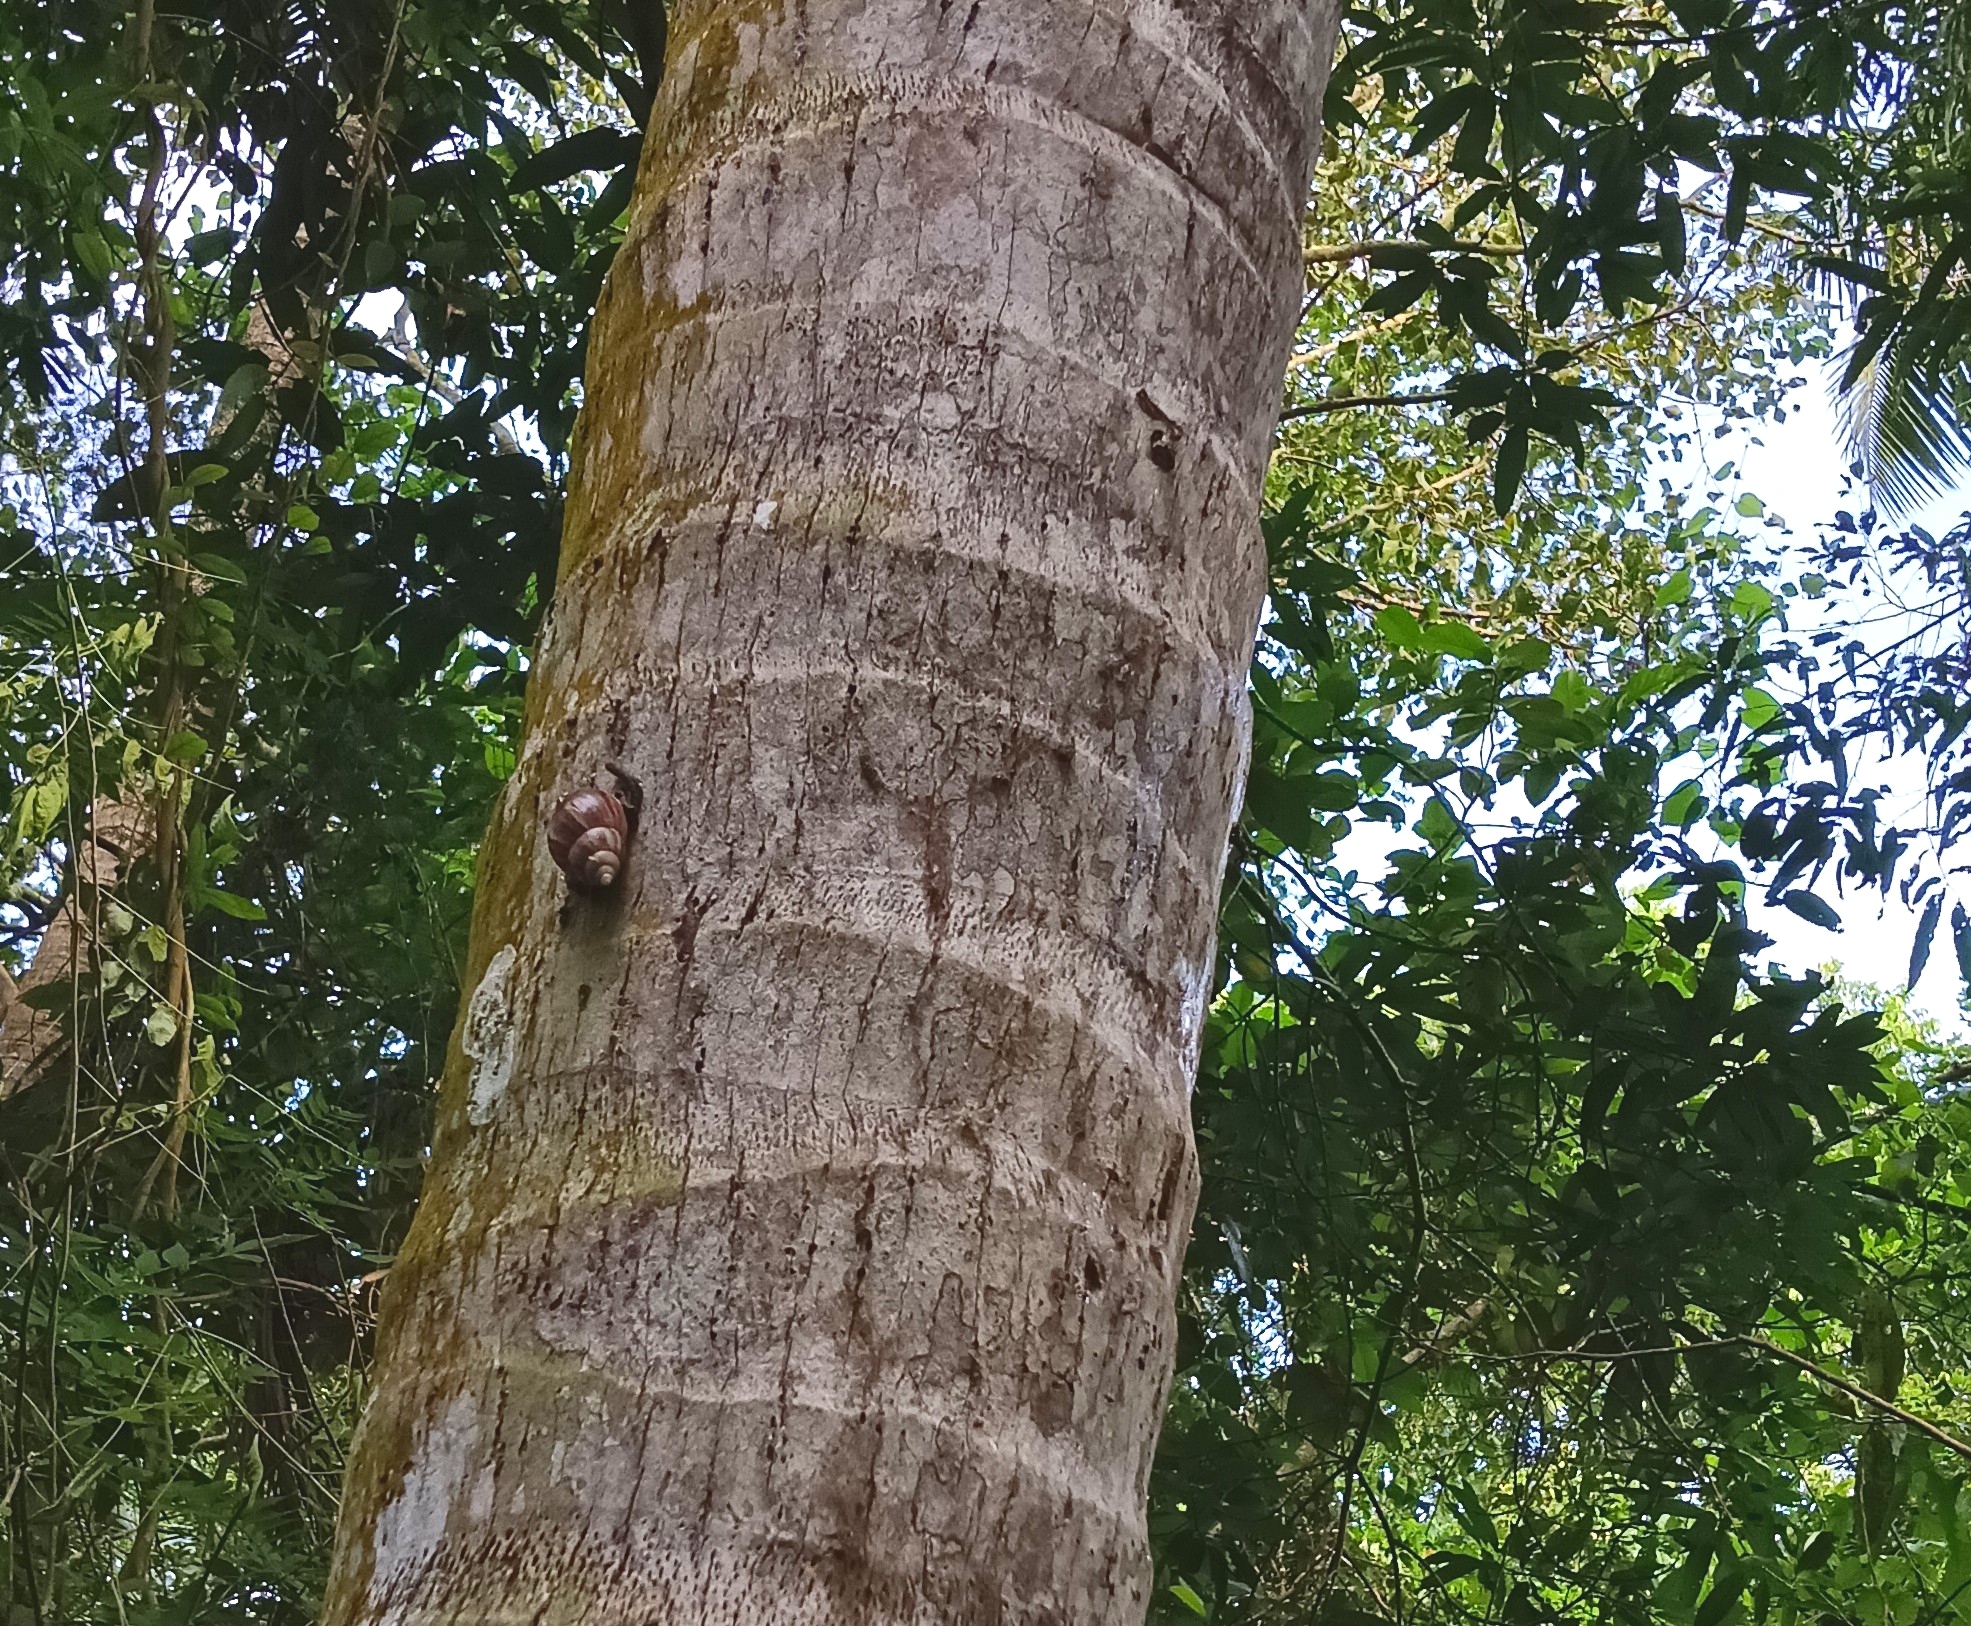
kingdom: Animalia
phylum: Mollusca
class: Gastropoda
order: Stylommatophora
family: Achatinidae
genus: Lissachatina
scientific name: Lissachatina fulica
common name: Giant african snail
